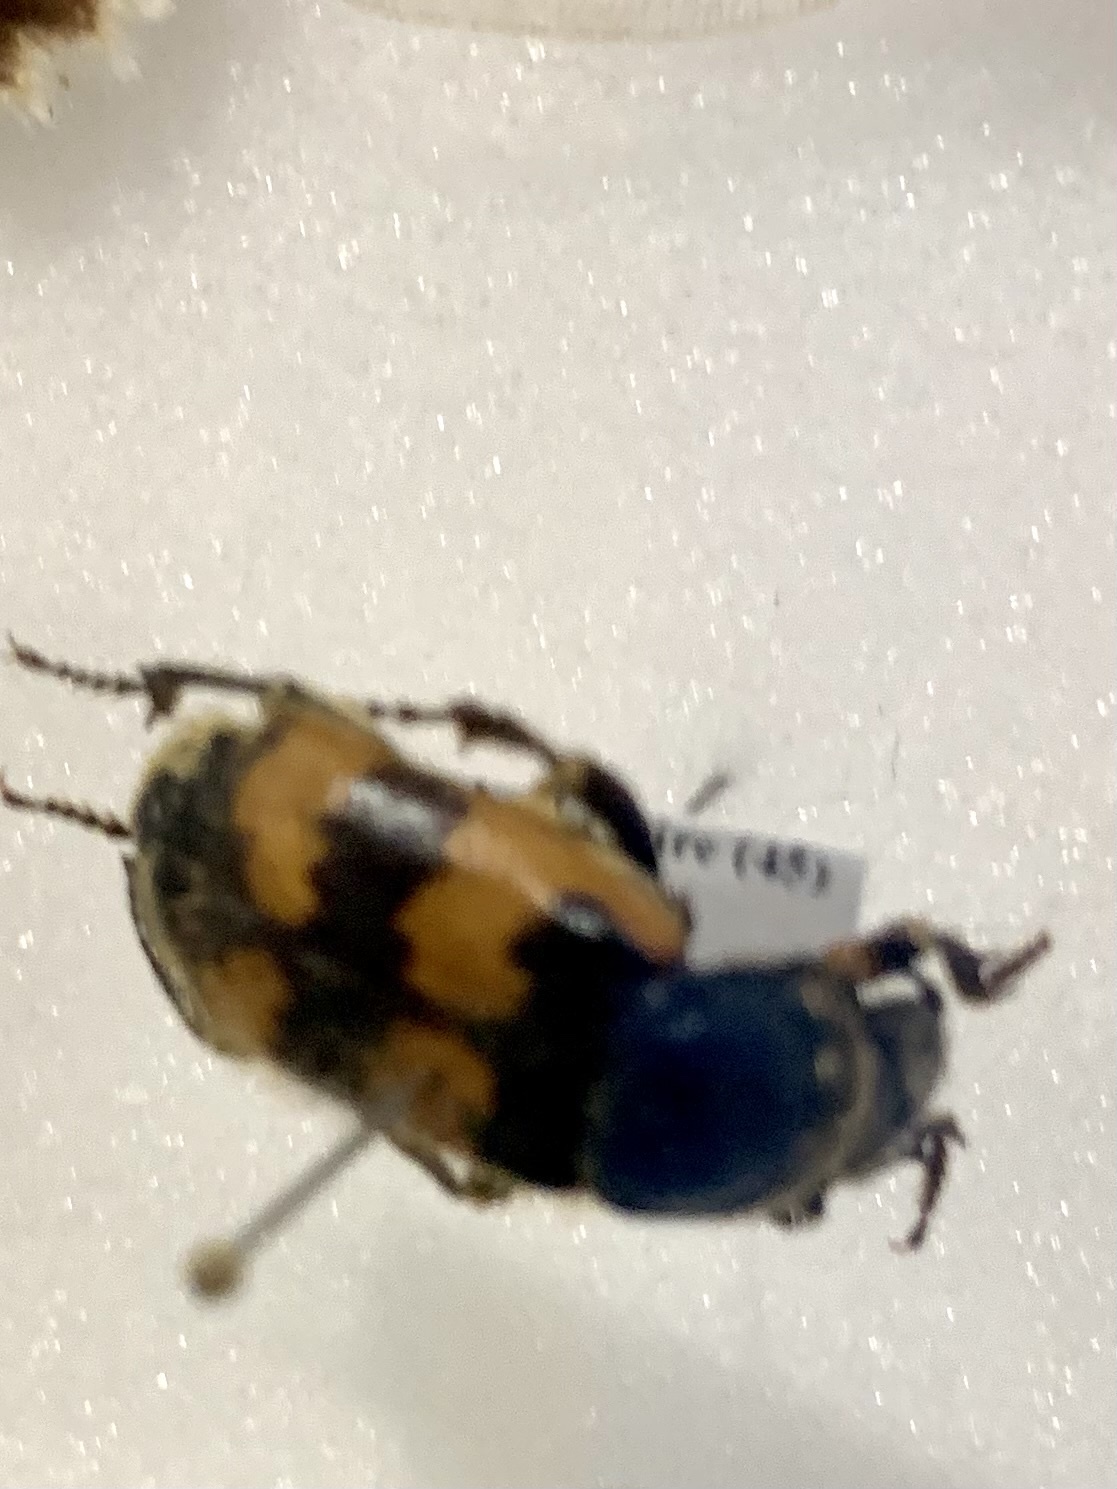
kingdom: Animalia
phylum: Arthropoda
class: Insecta
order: Coleoptera
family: Staphylinidae
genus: Nicrophorus
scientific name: Nicrophorus vespillo
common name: Common burying beetle
